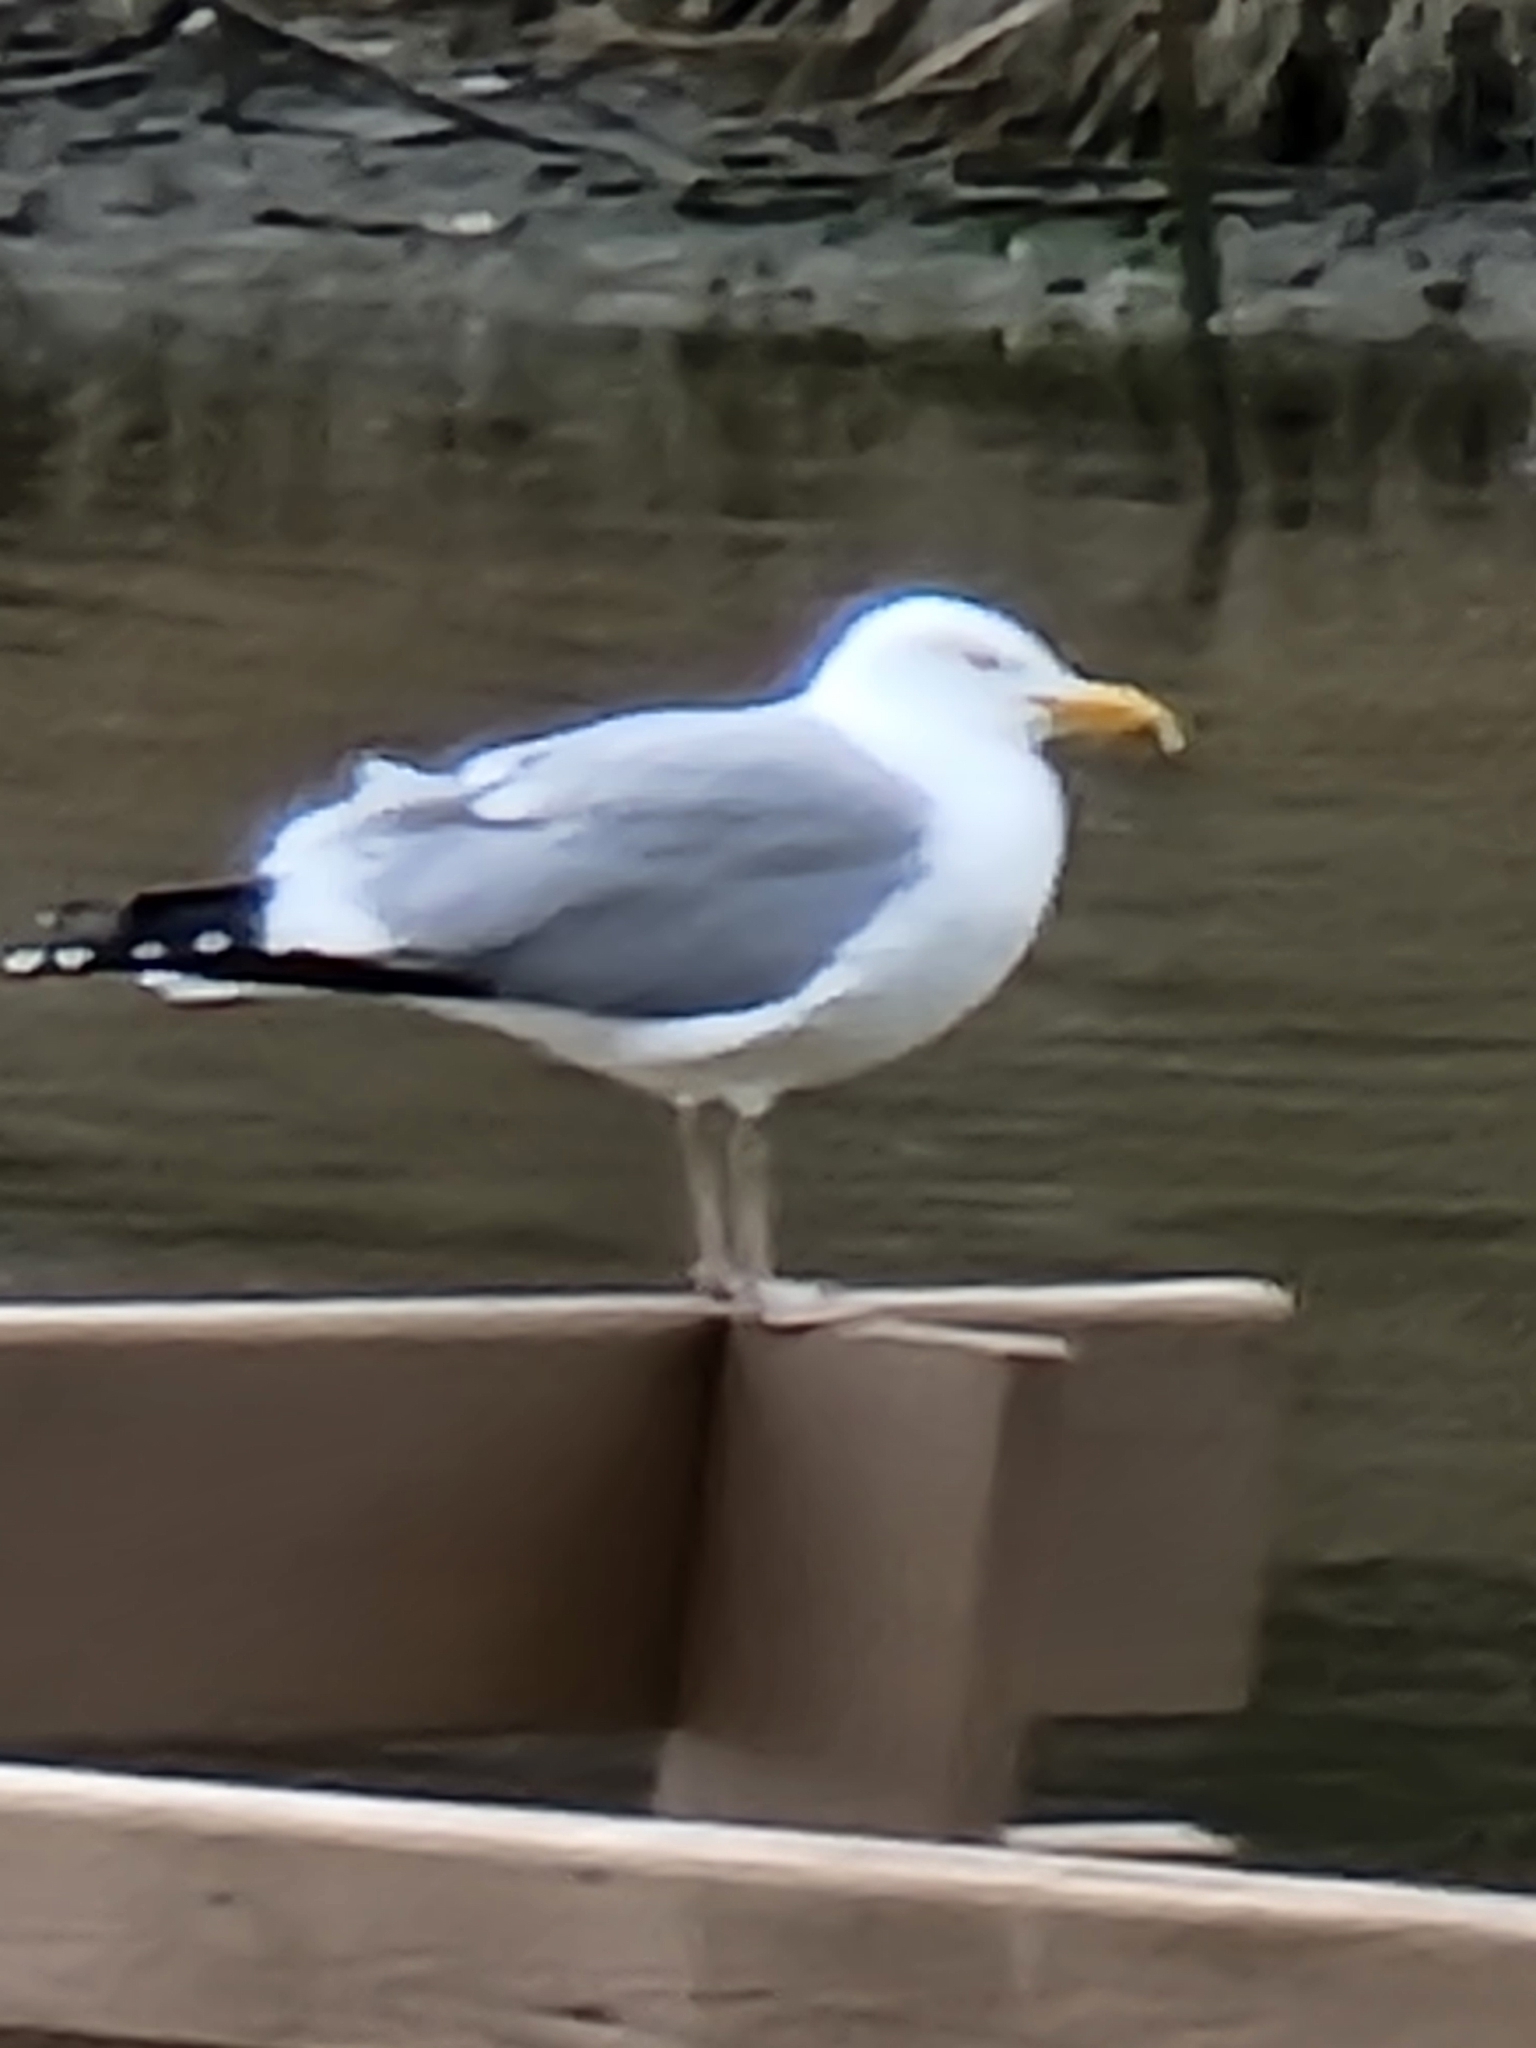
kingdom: Animalia
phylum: Chordata
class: Aves
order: Charadriiformes
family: Laridae
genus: Larus
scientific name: Larus argentatus
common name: Herring gull
